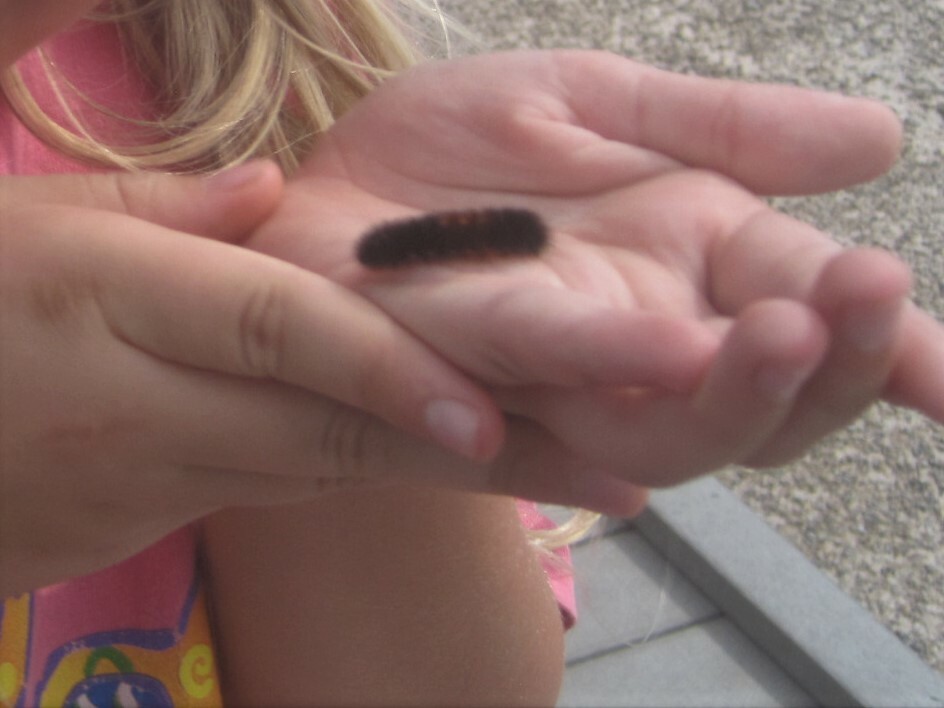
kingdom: Animalia
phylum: Arthropoda
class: Insecta
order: Lepidoptera
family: Erebidae
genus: Pyrrharctia
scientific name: Pyrrharctia isabella
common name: Isabella tiger moth
